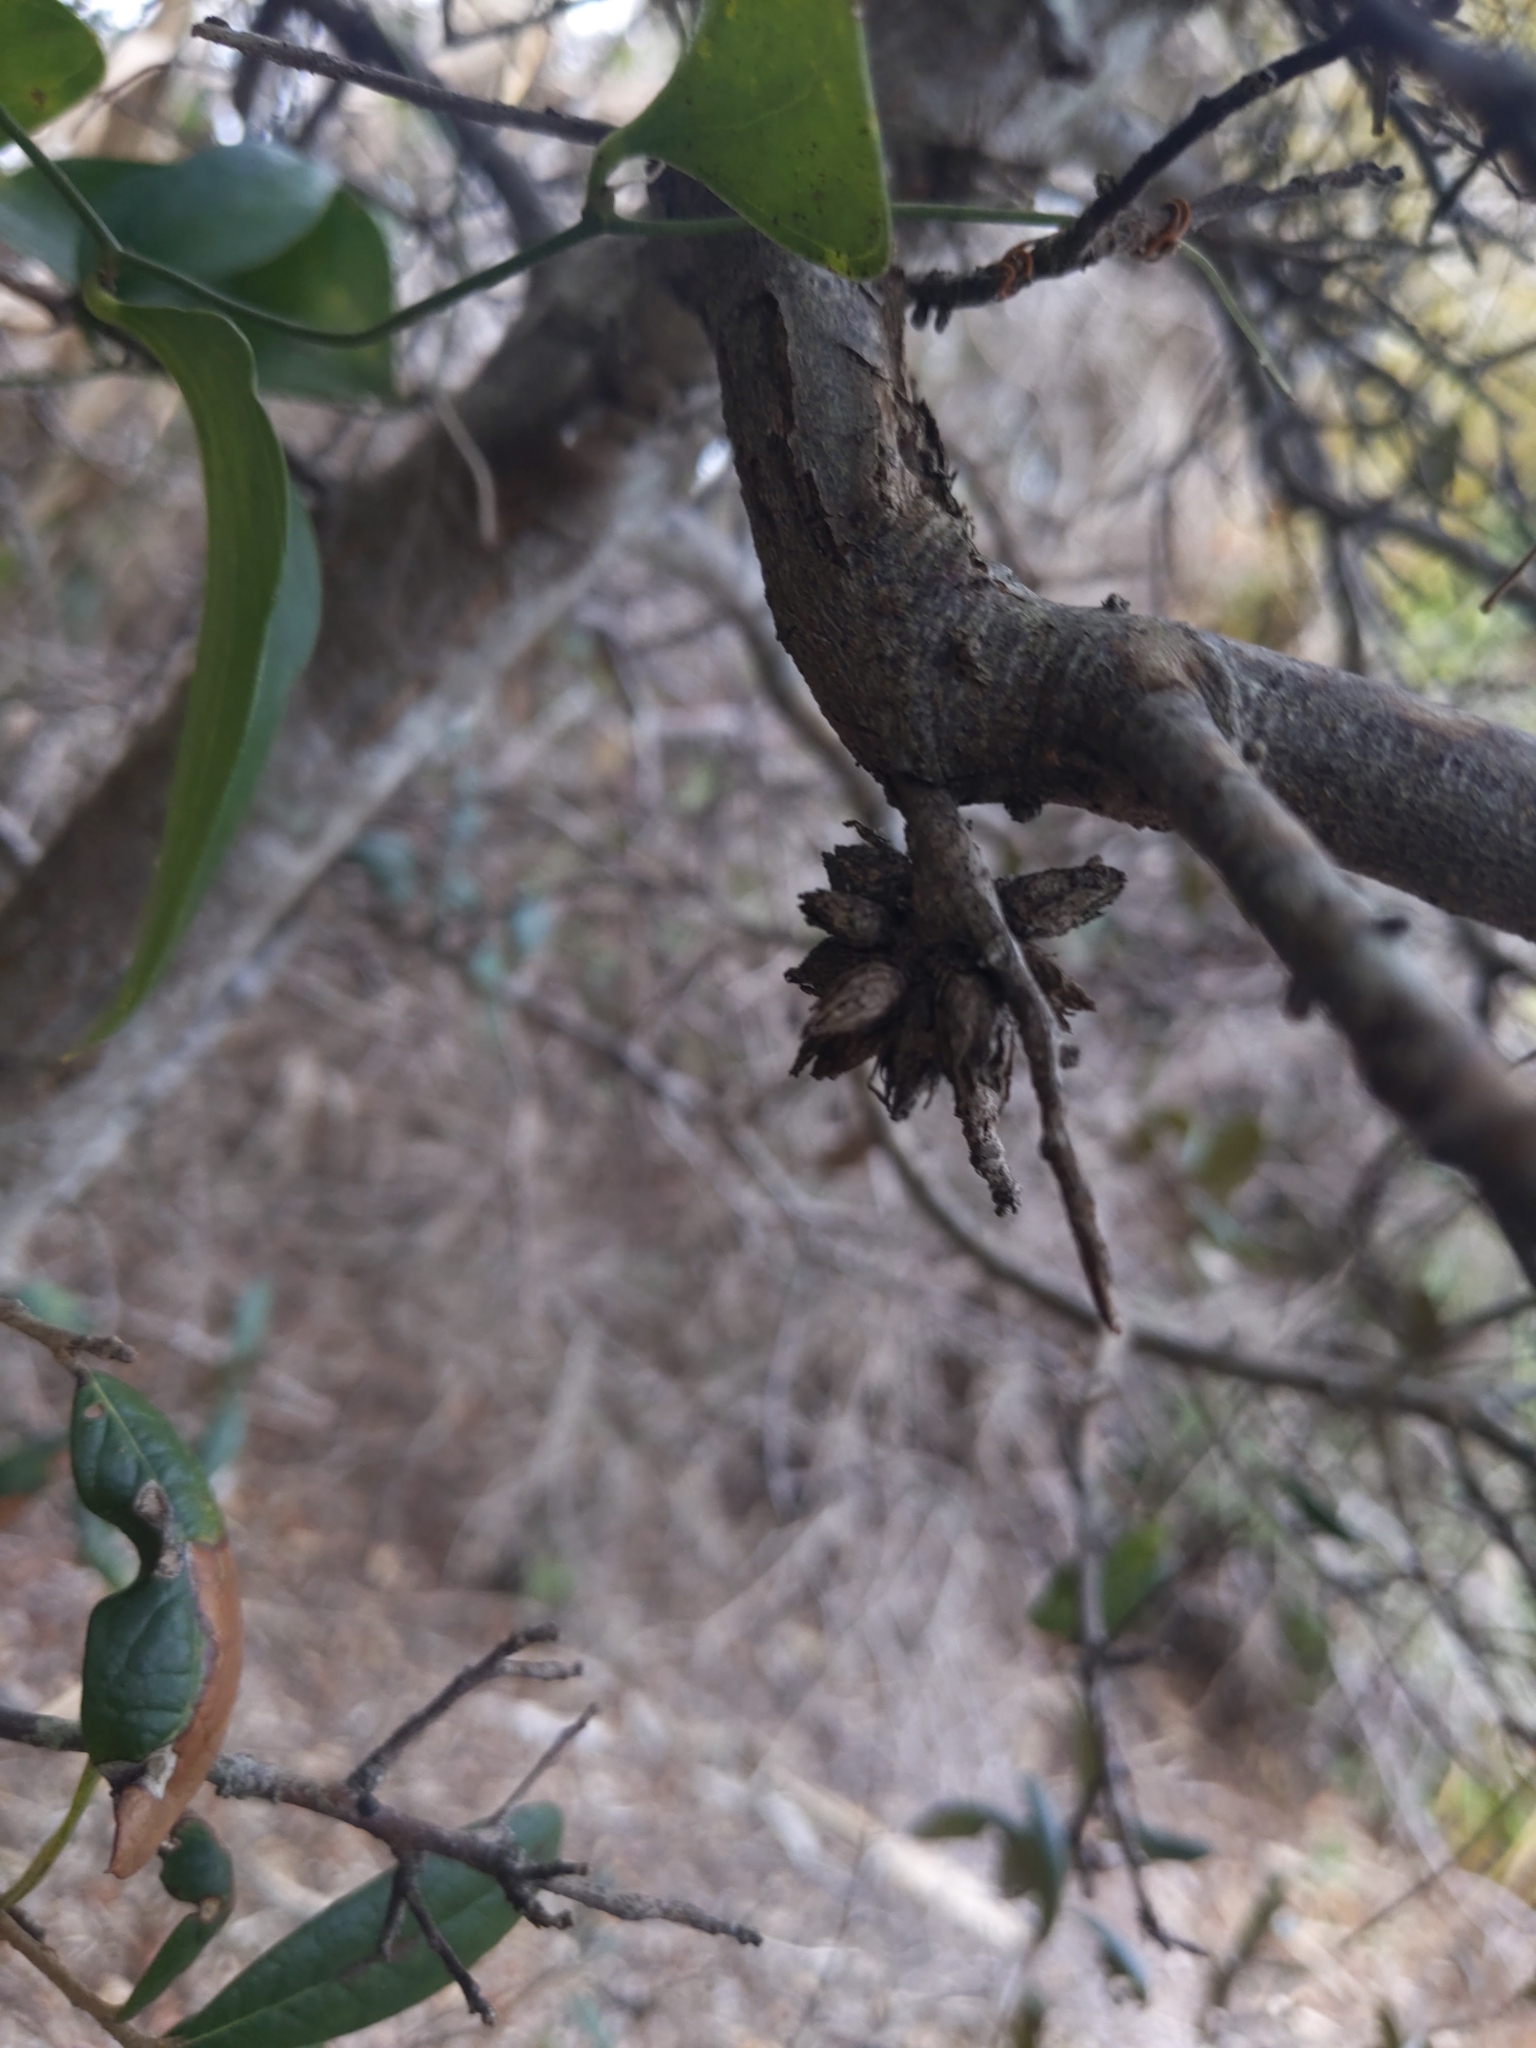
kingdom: Animalia
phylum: Arthropoda
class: Insecta
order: Diptera
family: Cecidomyiidae
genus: Arnoldiola
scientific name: Arnoldiola atra
